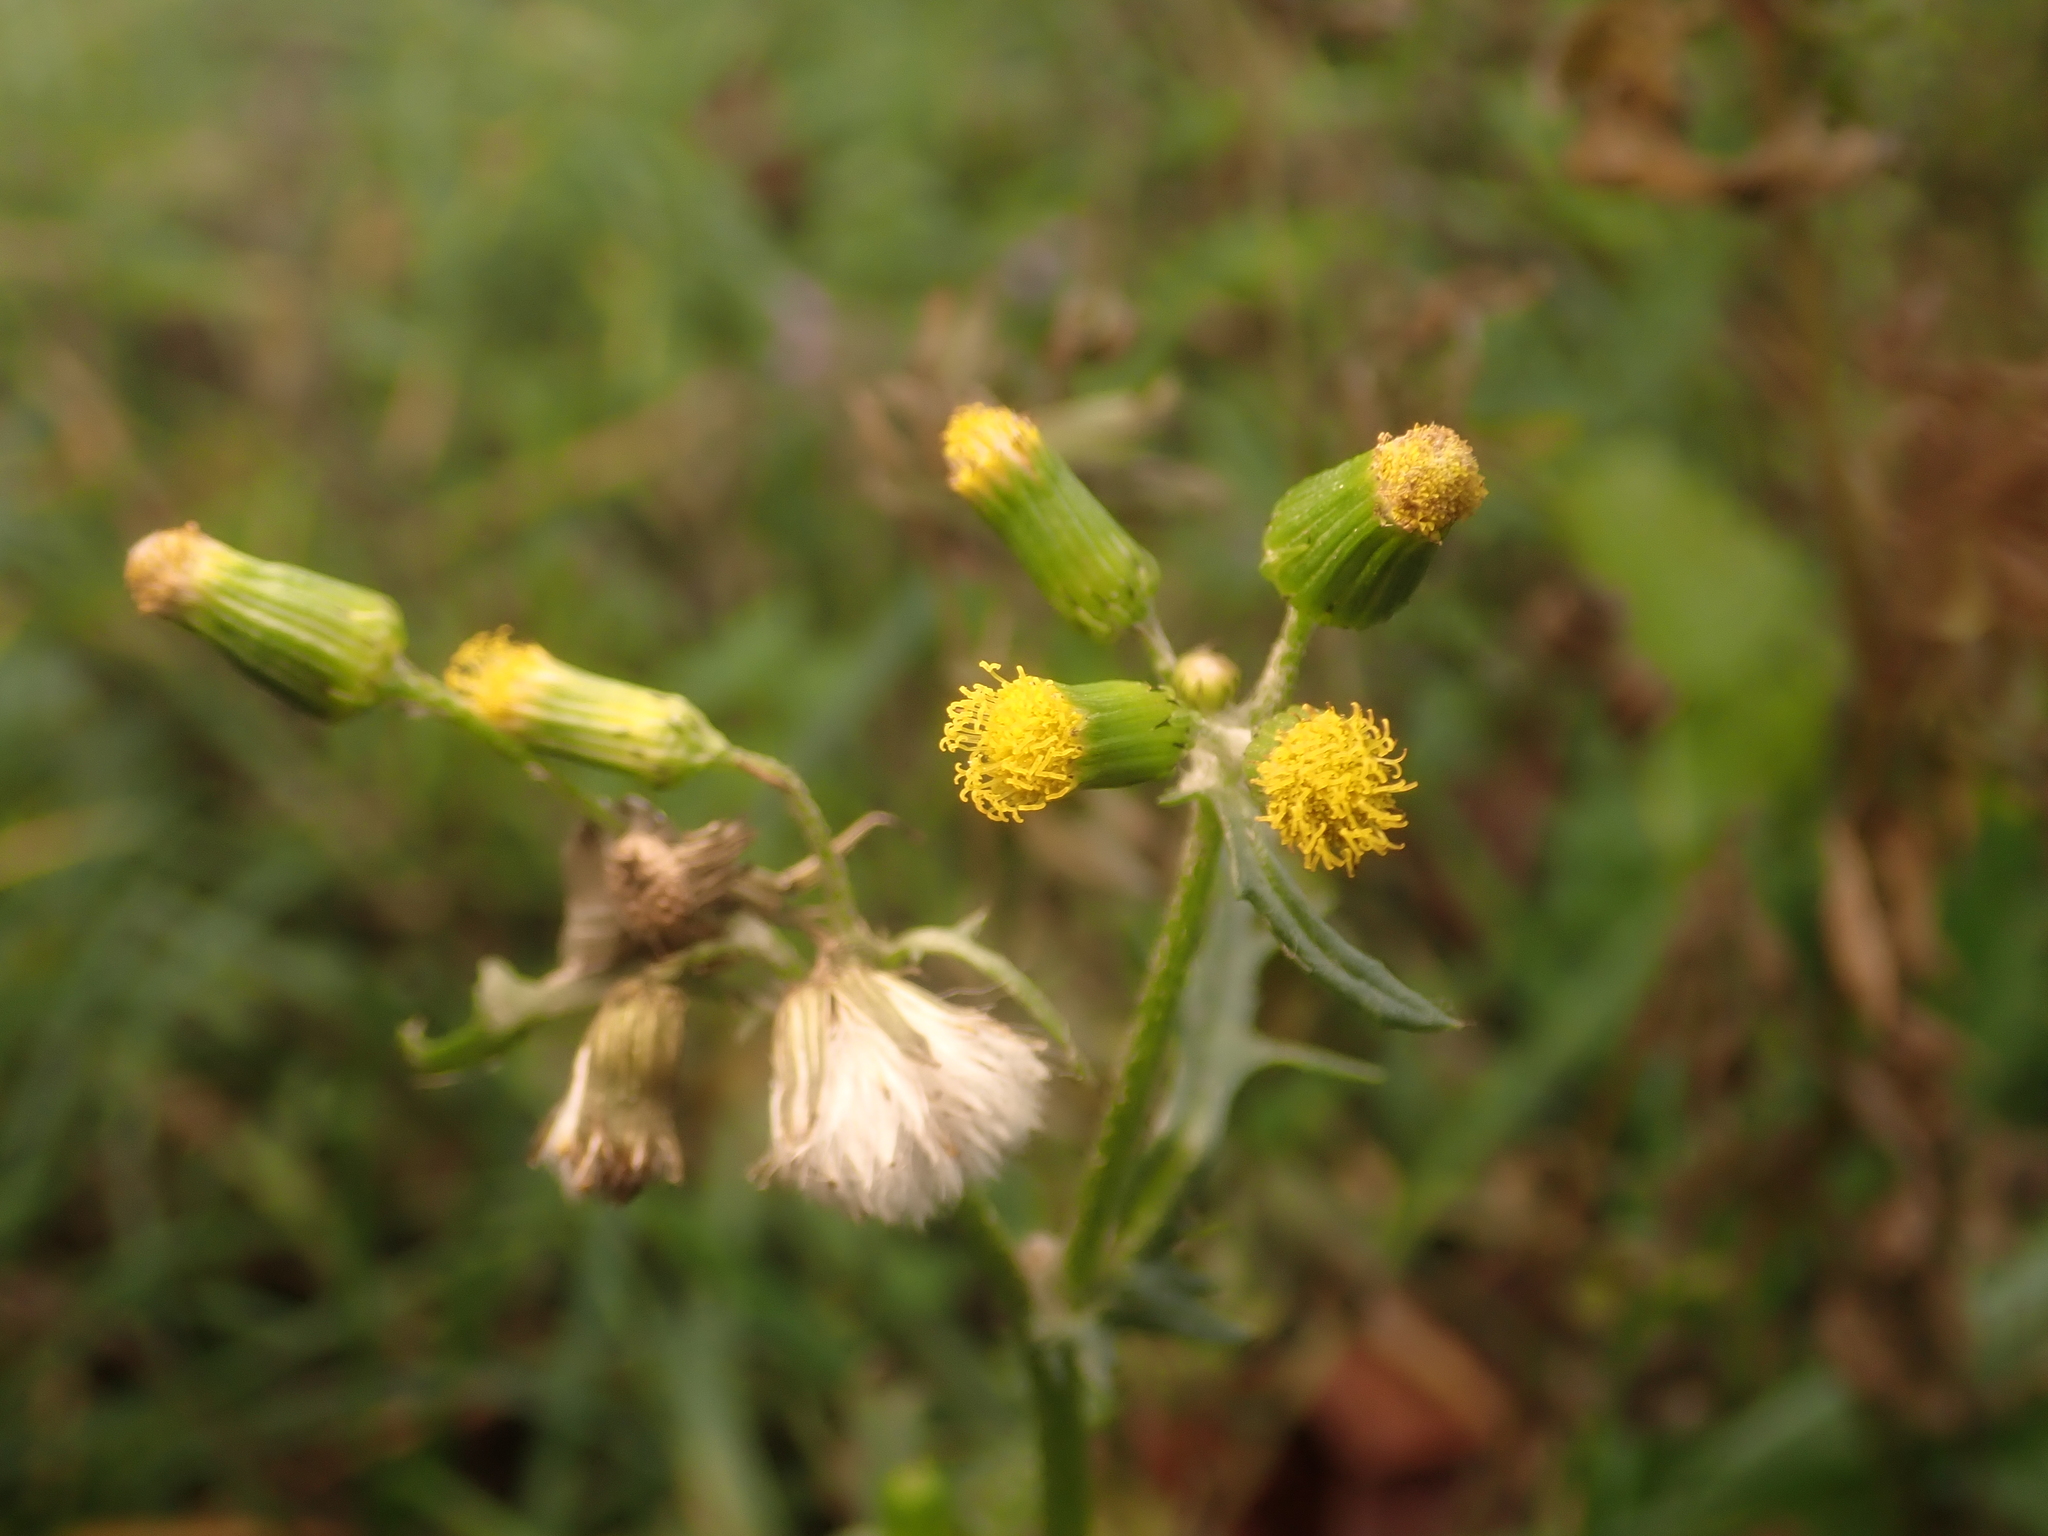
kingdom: Plantae
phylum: Tracheophyta
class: Magnoliopsida
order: Asterales
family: Asteraceae
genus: Senecio
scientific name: Senecio vulgaris
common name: Old-man-in-the-spring
